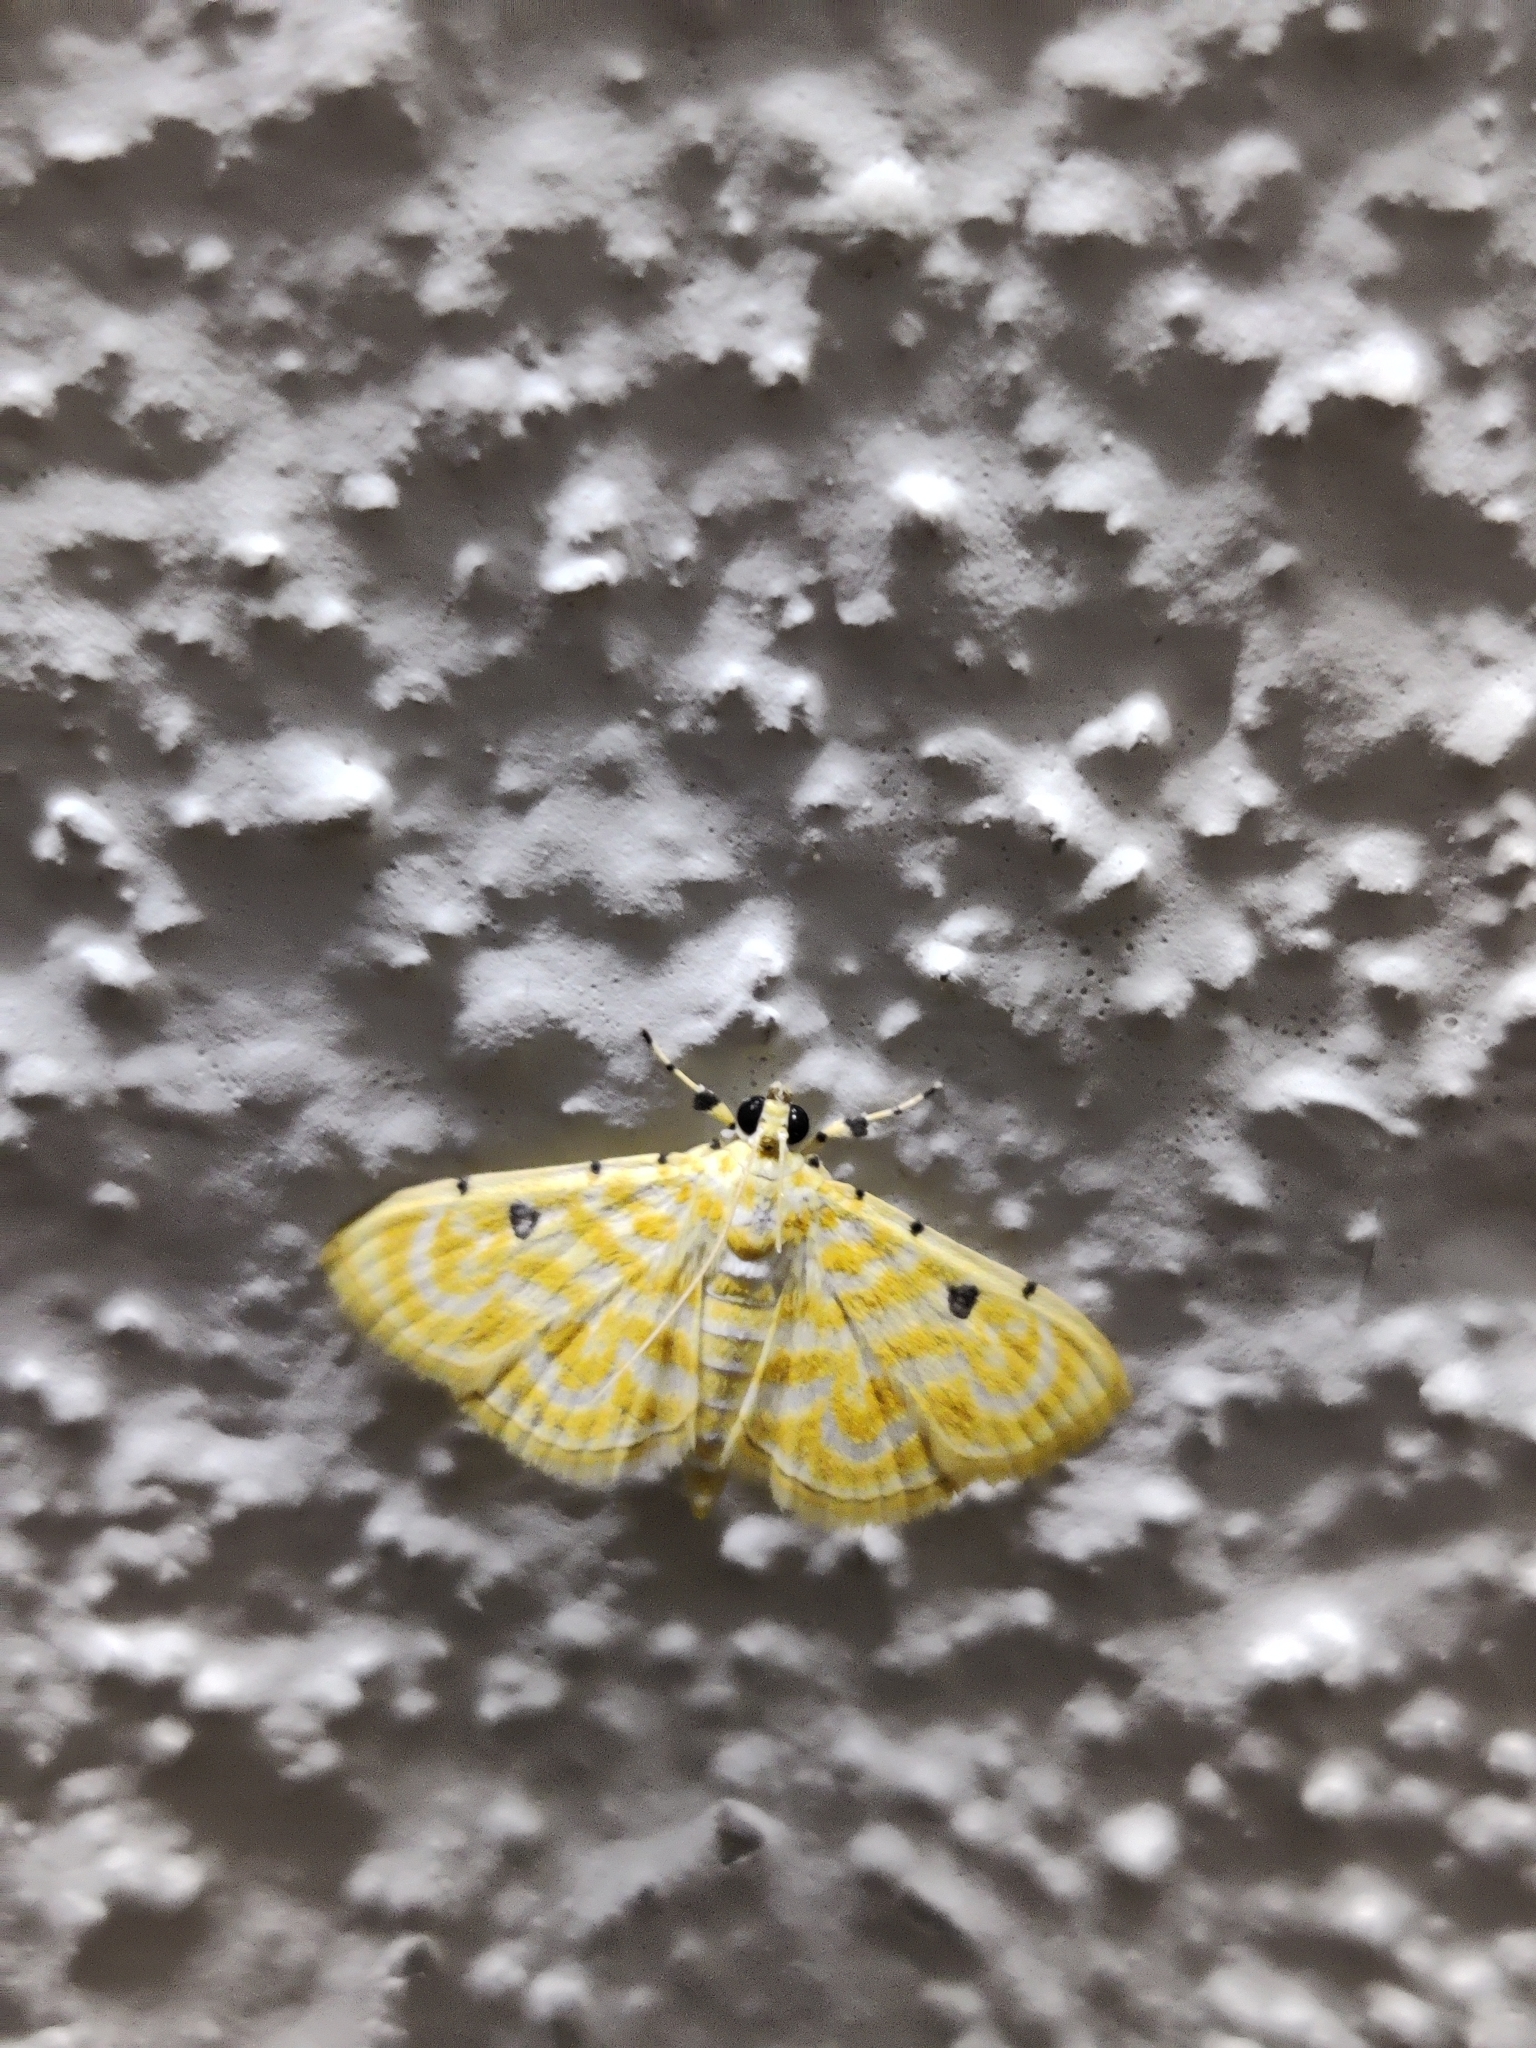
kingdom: Animalia
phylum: Arthropoda
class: Insecta
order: Lepidoptera
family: Crambidae
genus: Notarcha
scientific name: Notarcha aurolinealis
